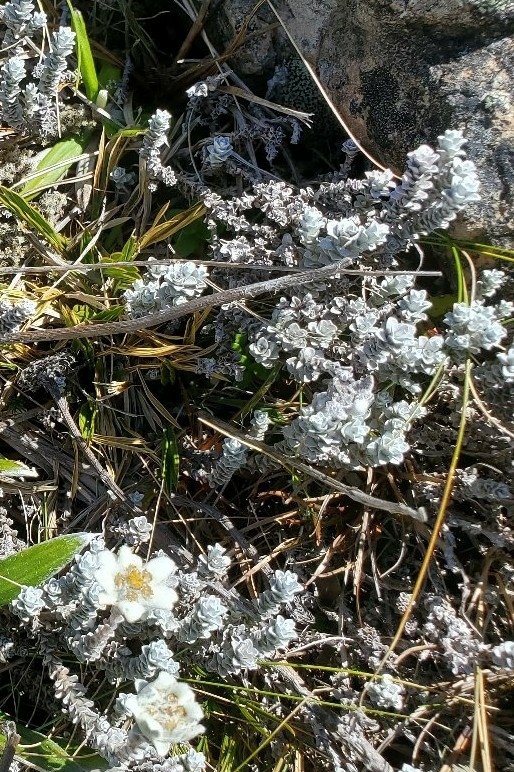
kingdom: Plantae
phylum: Tracheophyta
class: Magnoliopsida
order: Asterales
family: Asteraceae
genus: Leucogenes
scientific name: Leucogenes grandiceps
